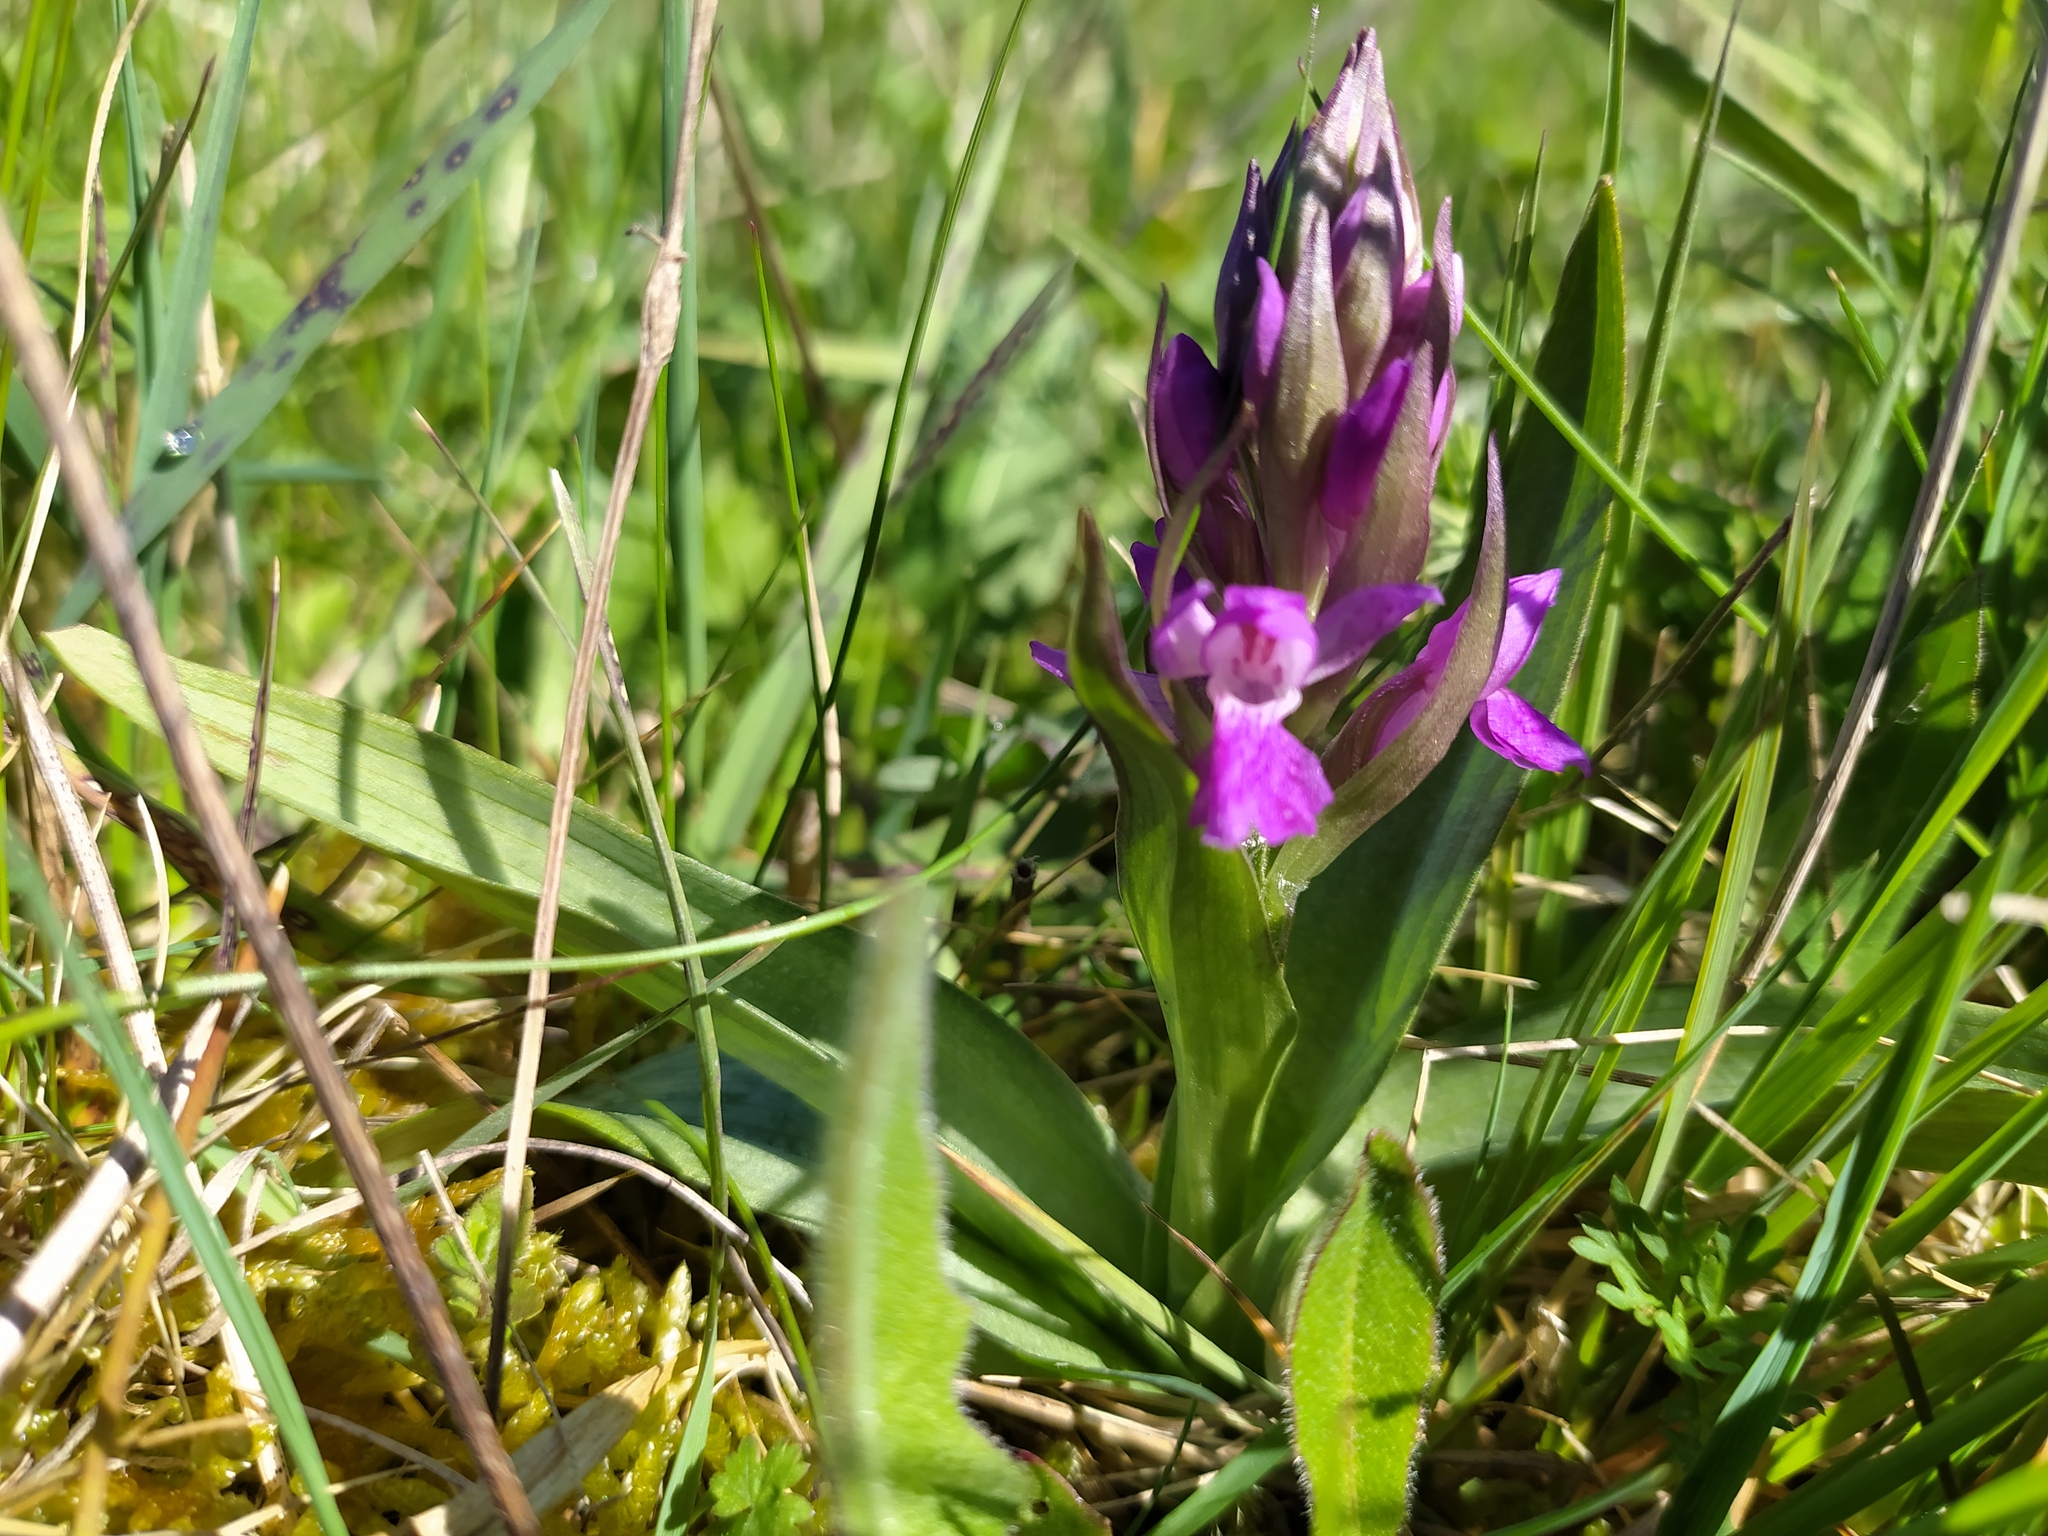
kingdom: Plantae
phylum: Tracheophyta
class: Liliopsida
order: Asparagales
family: Orchidaceae
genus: Dactylorhiza
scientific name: Dactylorhiza majalis
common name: Marsh orchid
